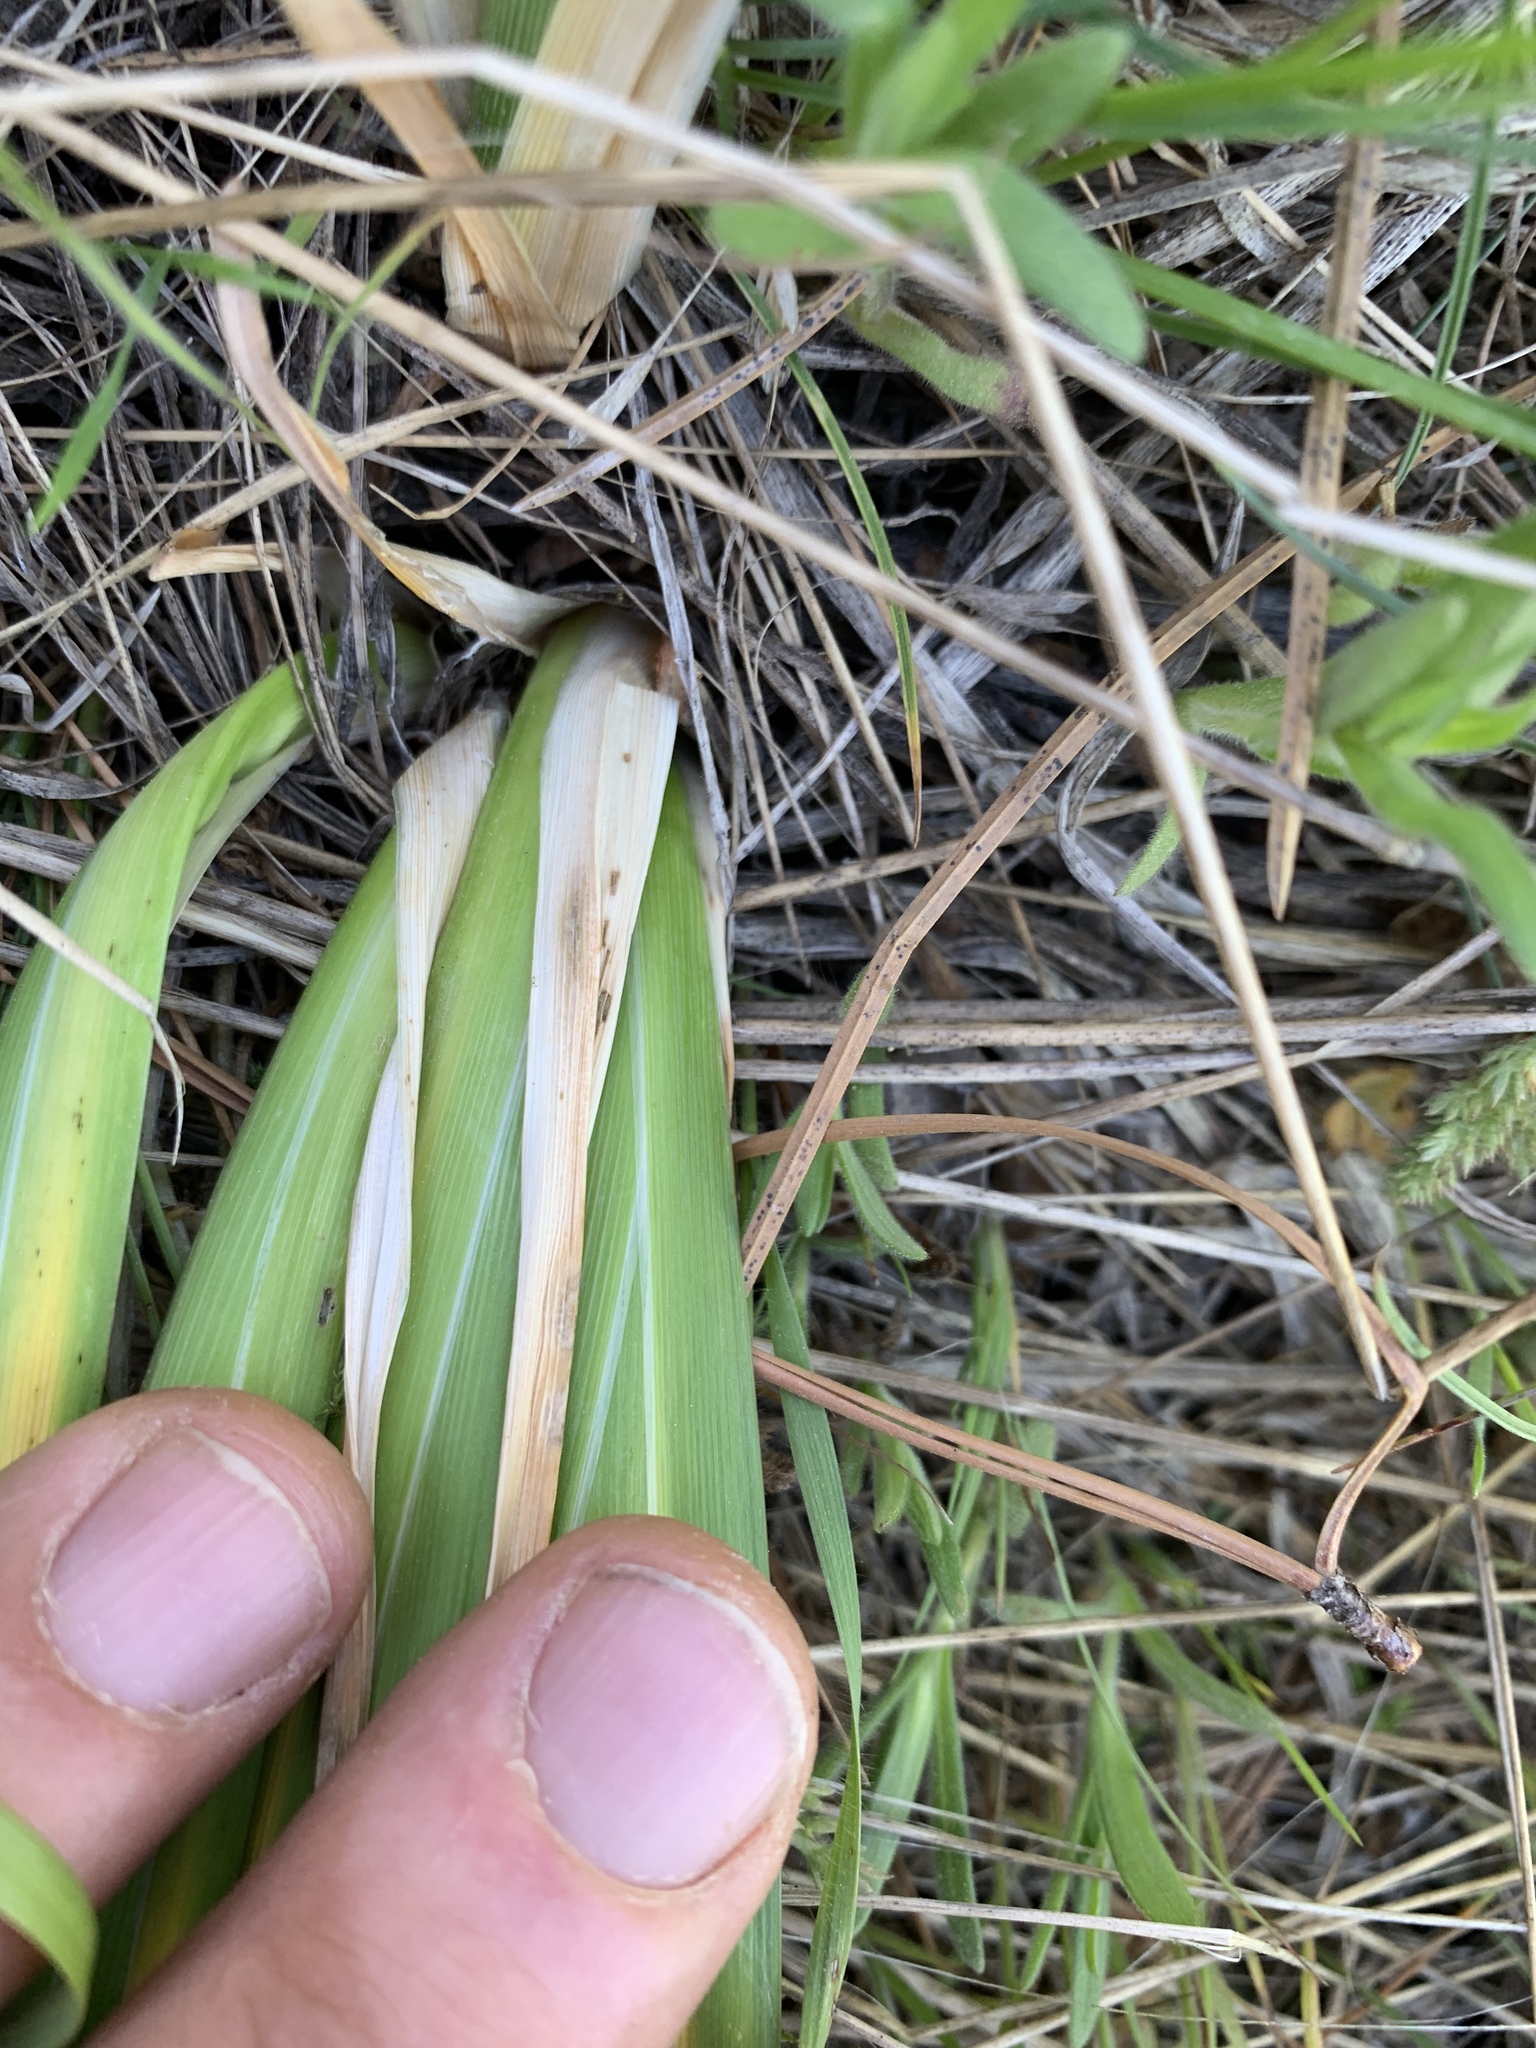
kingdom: Plantae
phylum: Tracheophyta
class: Liliopsida
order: Asparagales
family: Iridaceae
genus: Iris
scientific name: Iris missouriensis
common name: Rocky mountain iris
